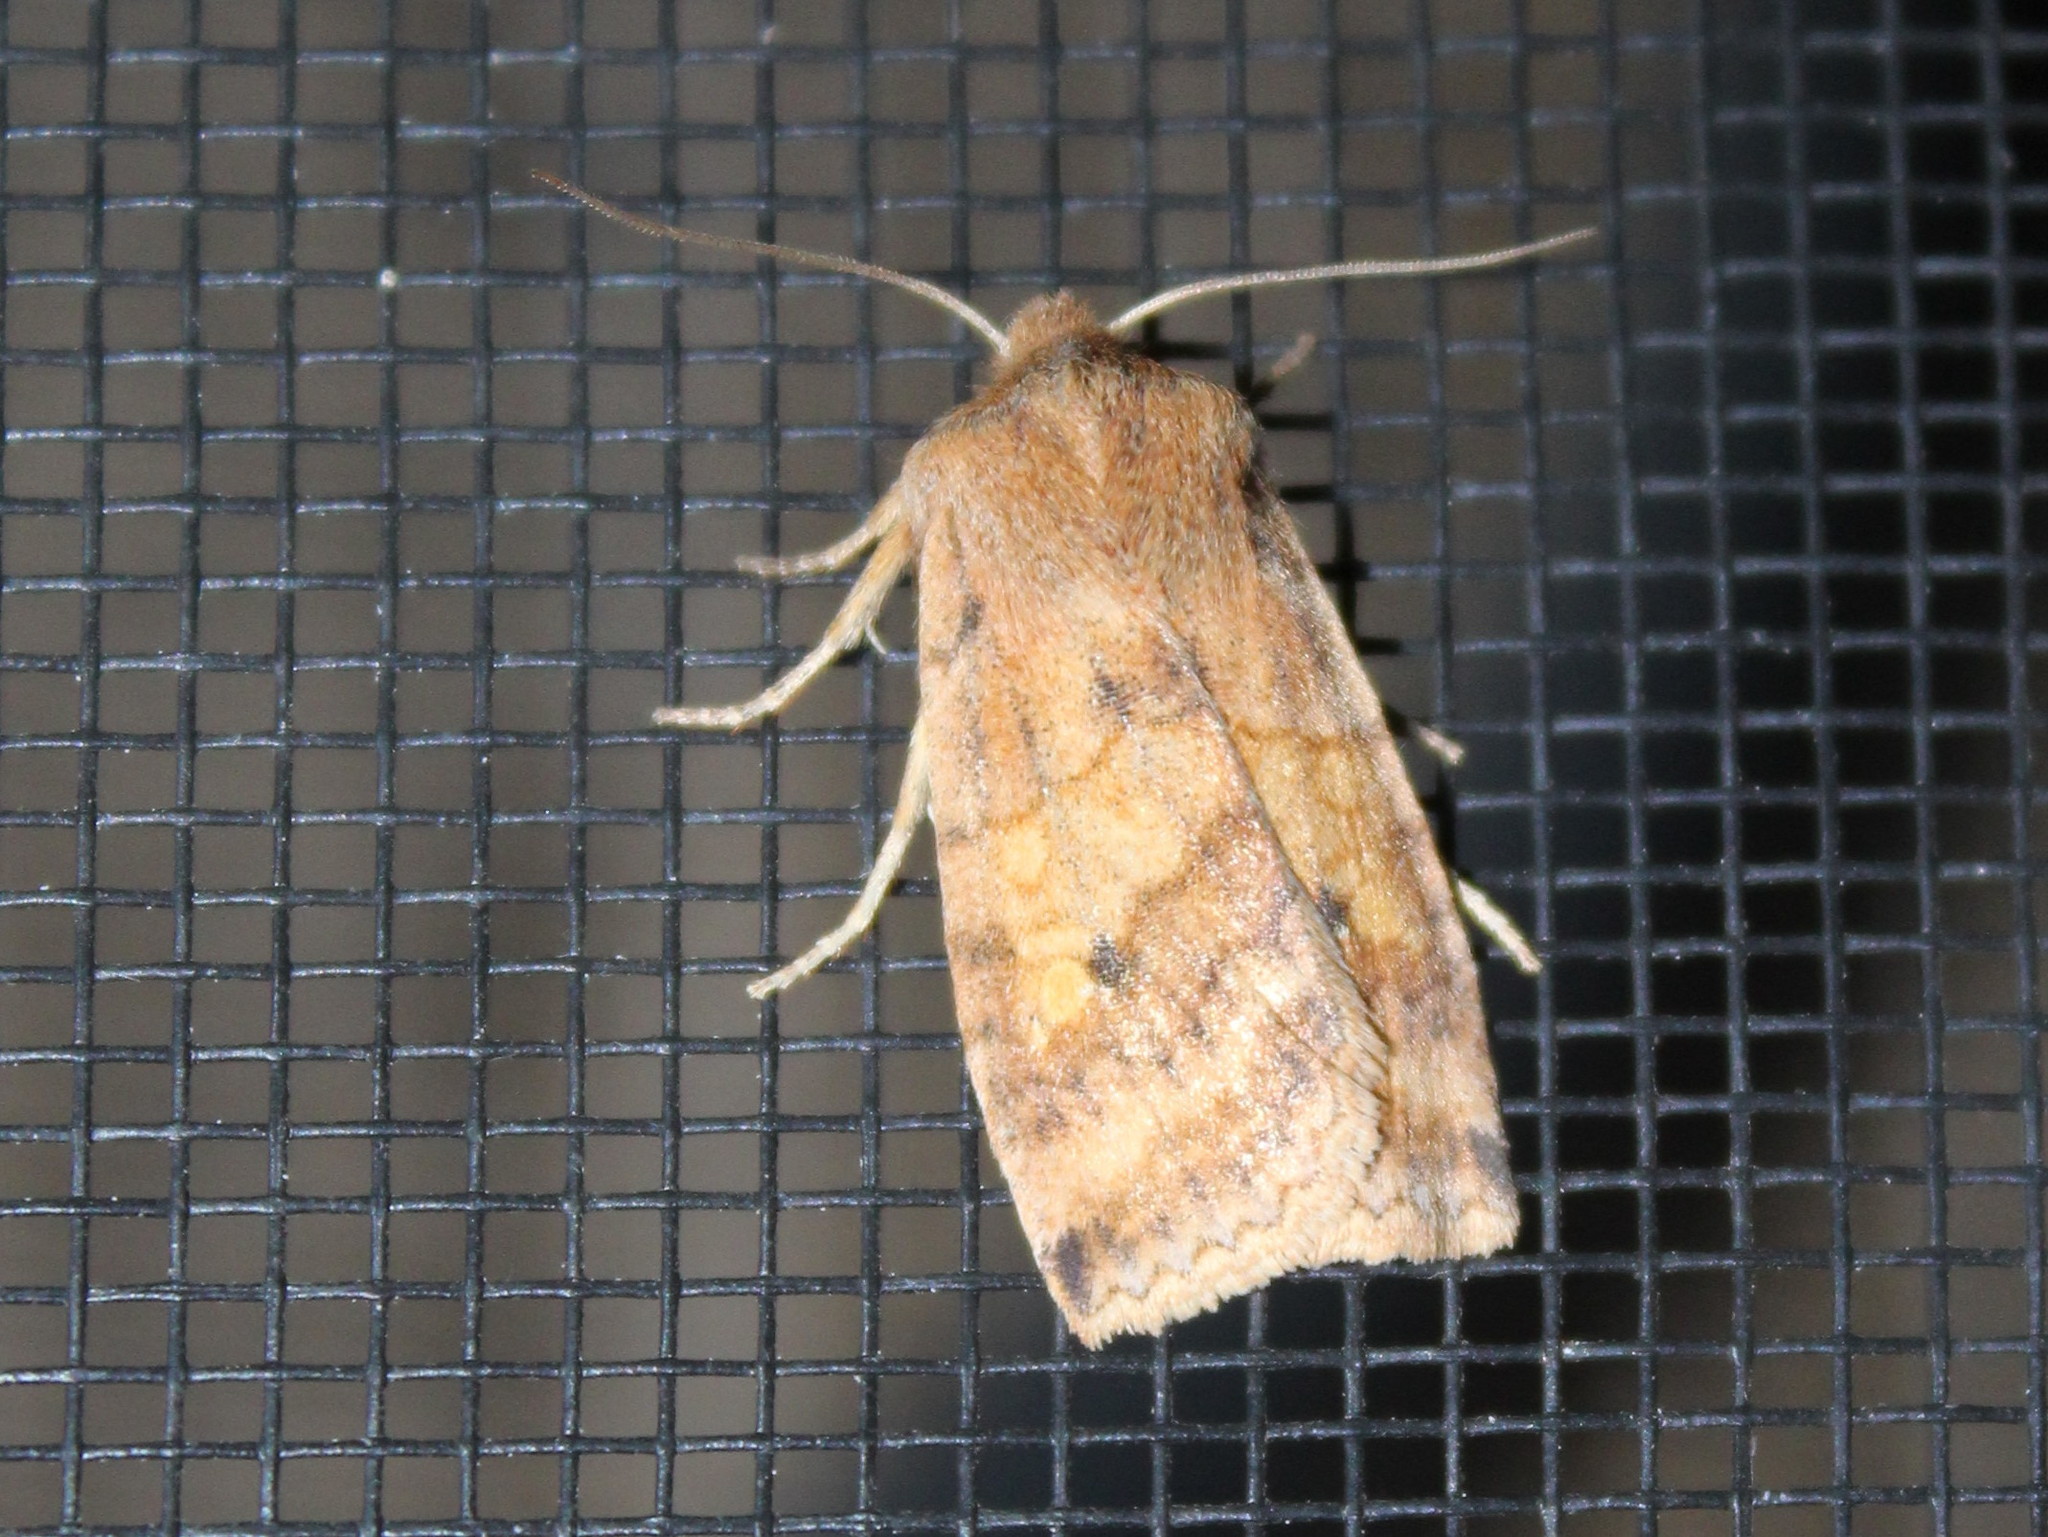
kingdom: Animalia
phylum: Arthropoda
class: Insecta
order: Lepidoptera
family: Noctuidae
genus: Eupsilia
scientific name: Eupsilia tristigmata
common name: Three-spotted sallow
